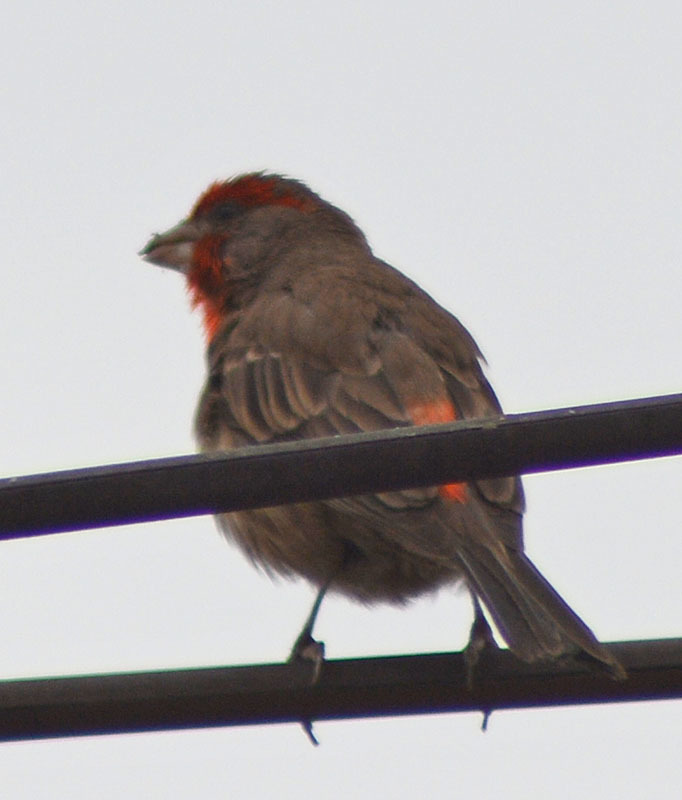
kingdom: Animalia
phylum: Chordata
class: Aves
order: Passeriformes
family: Fringillidae
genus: Haemorhous
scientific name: Haemorhous mexicanus
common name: House finch
